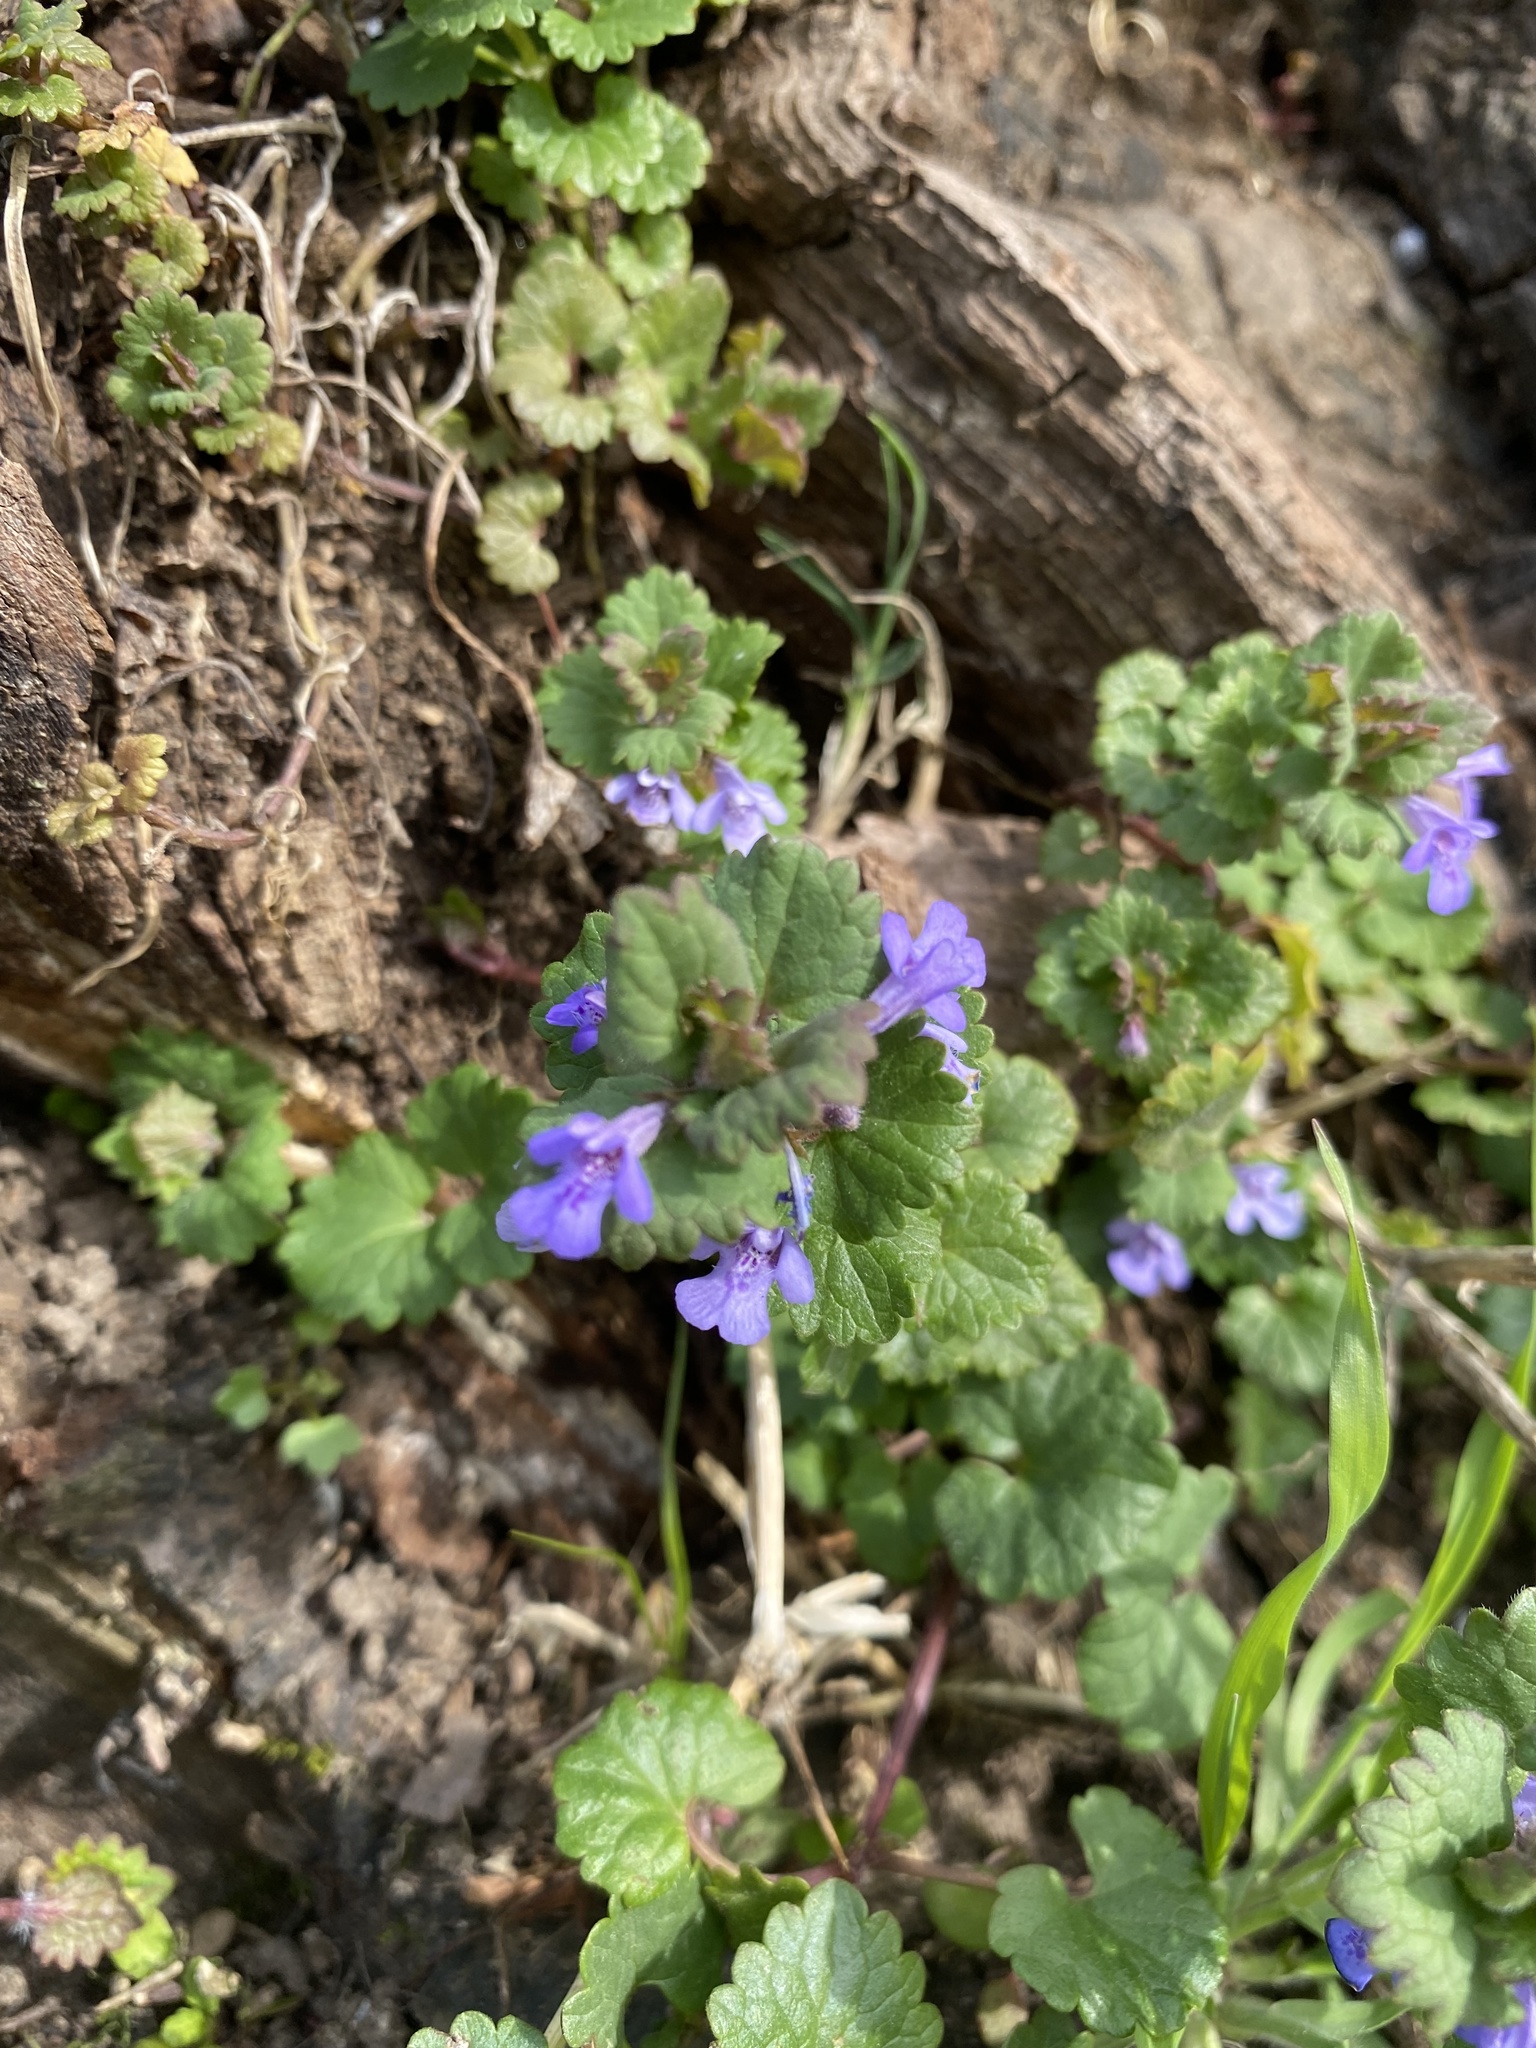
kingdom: Plantae
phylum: Tracheophyta
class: Magnoliopsida
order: Lamiales
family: Lamiaceae
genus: Glechoma
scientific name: Glechoma hederacea
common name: Ground ivy
